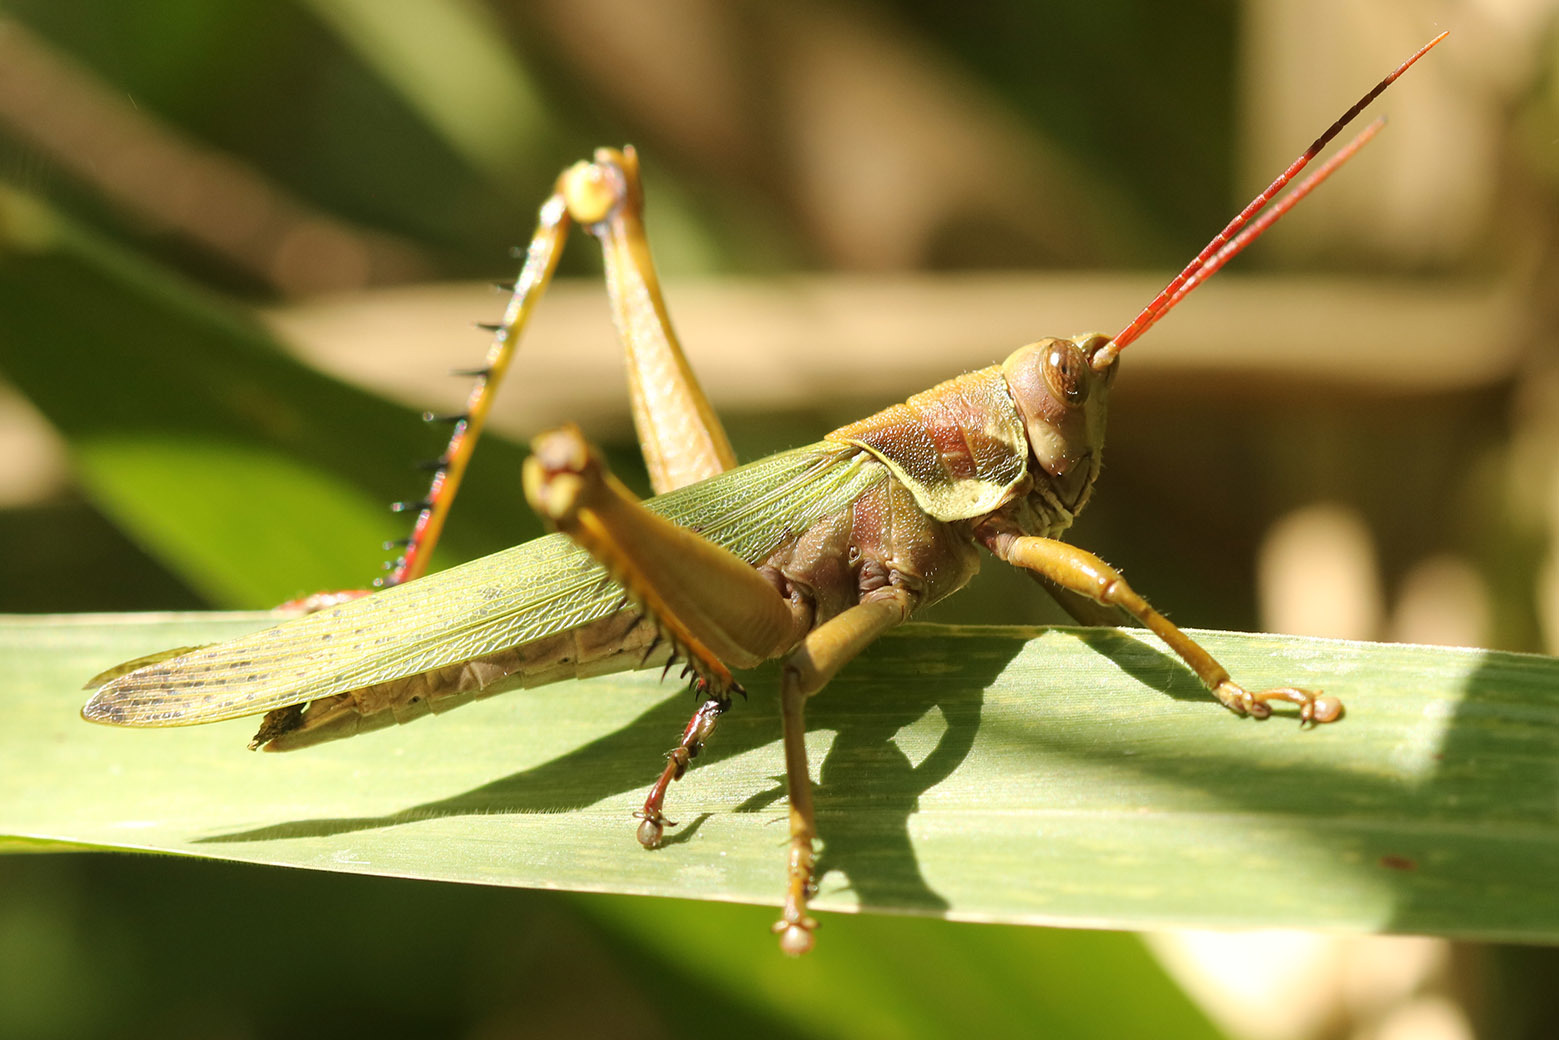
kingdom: Animalia
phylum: Arthropoda
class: Insecta
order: Orthoptera
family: Romaleidae
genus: Coryacris
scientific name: Coryacris angustipennis
